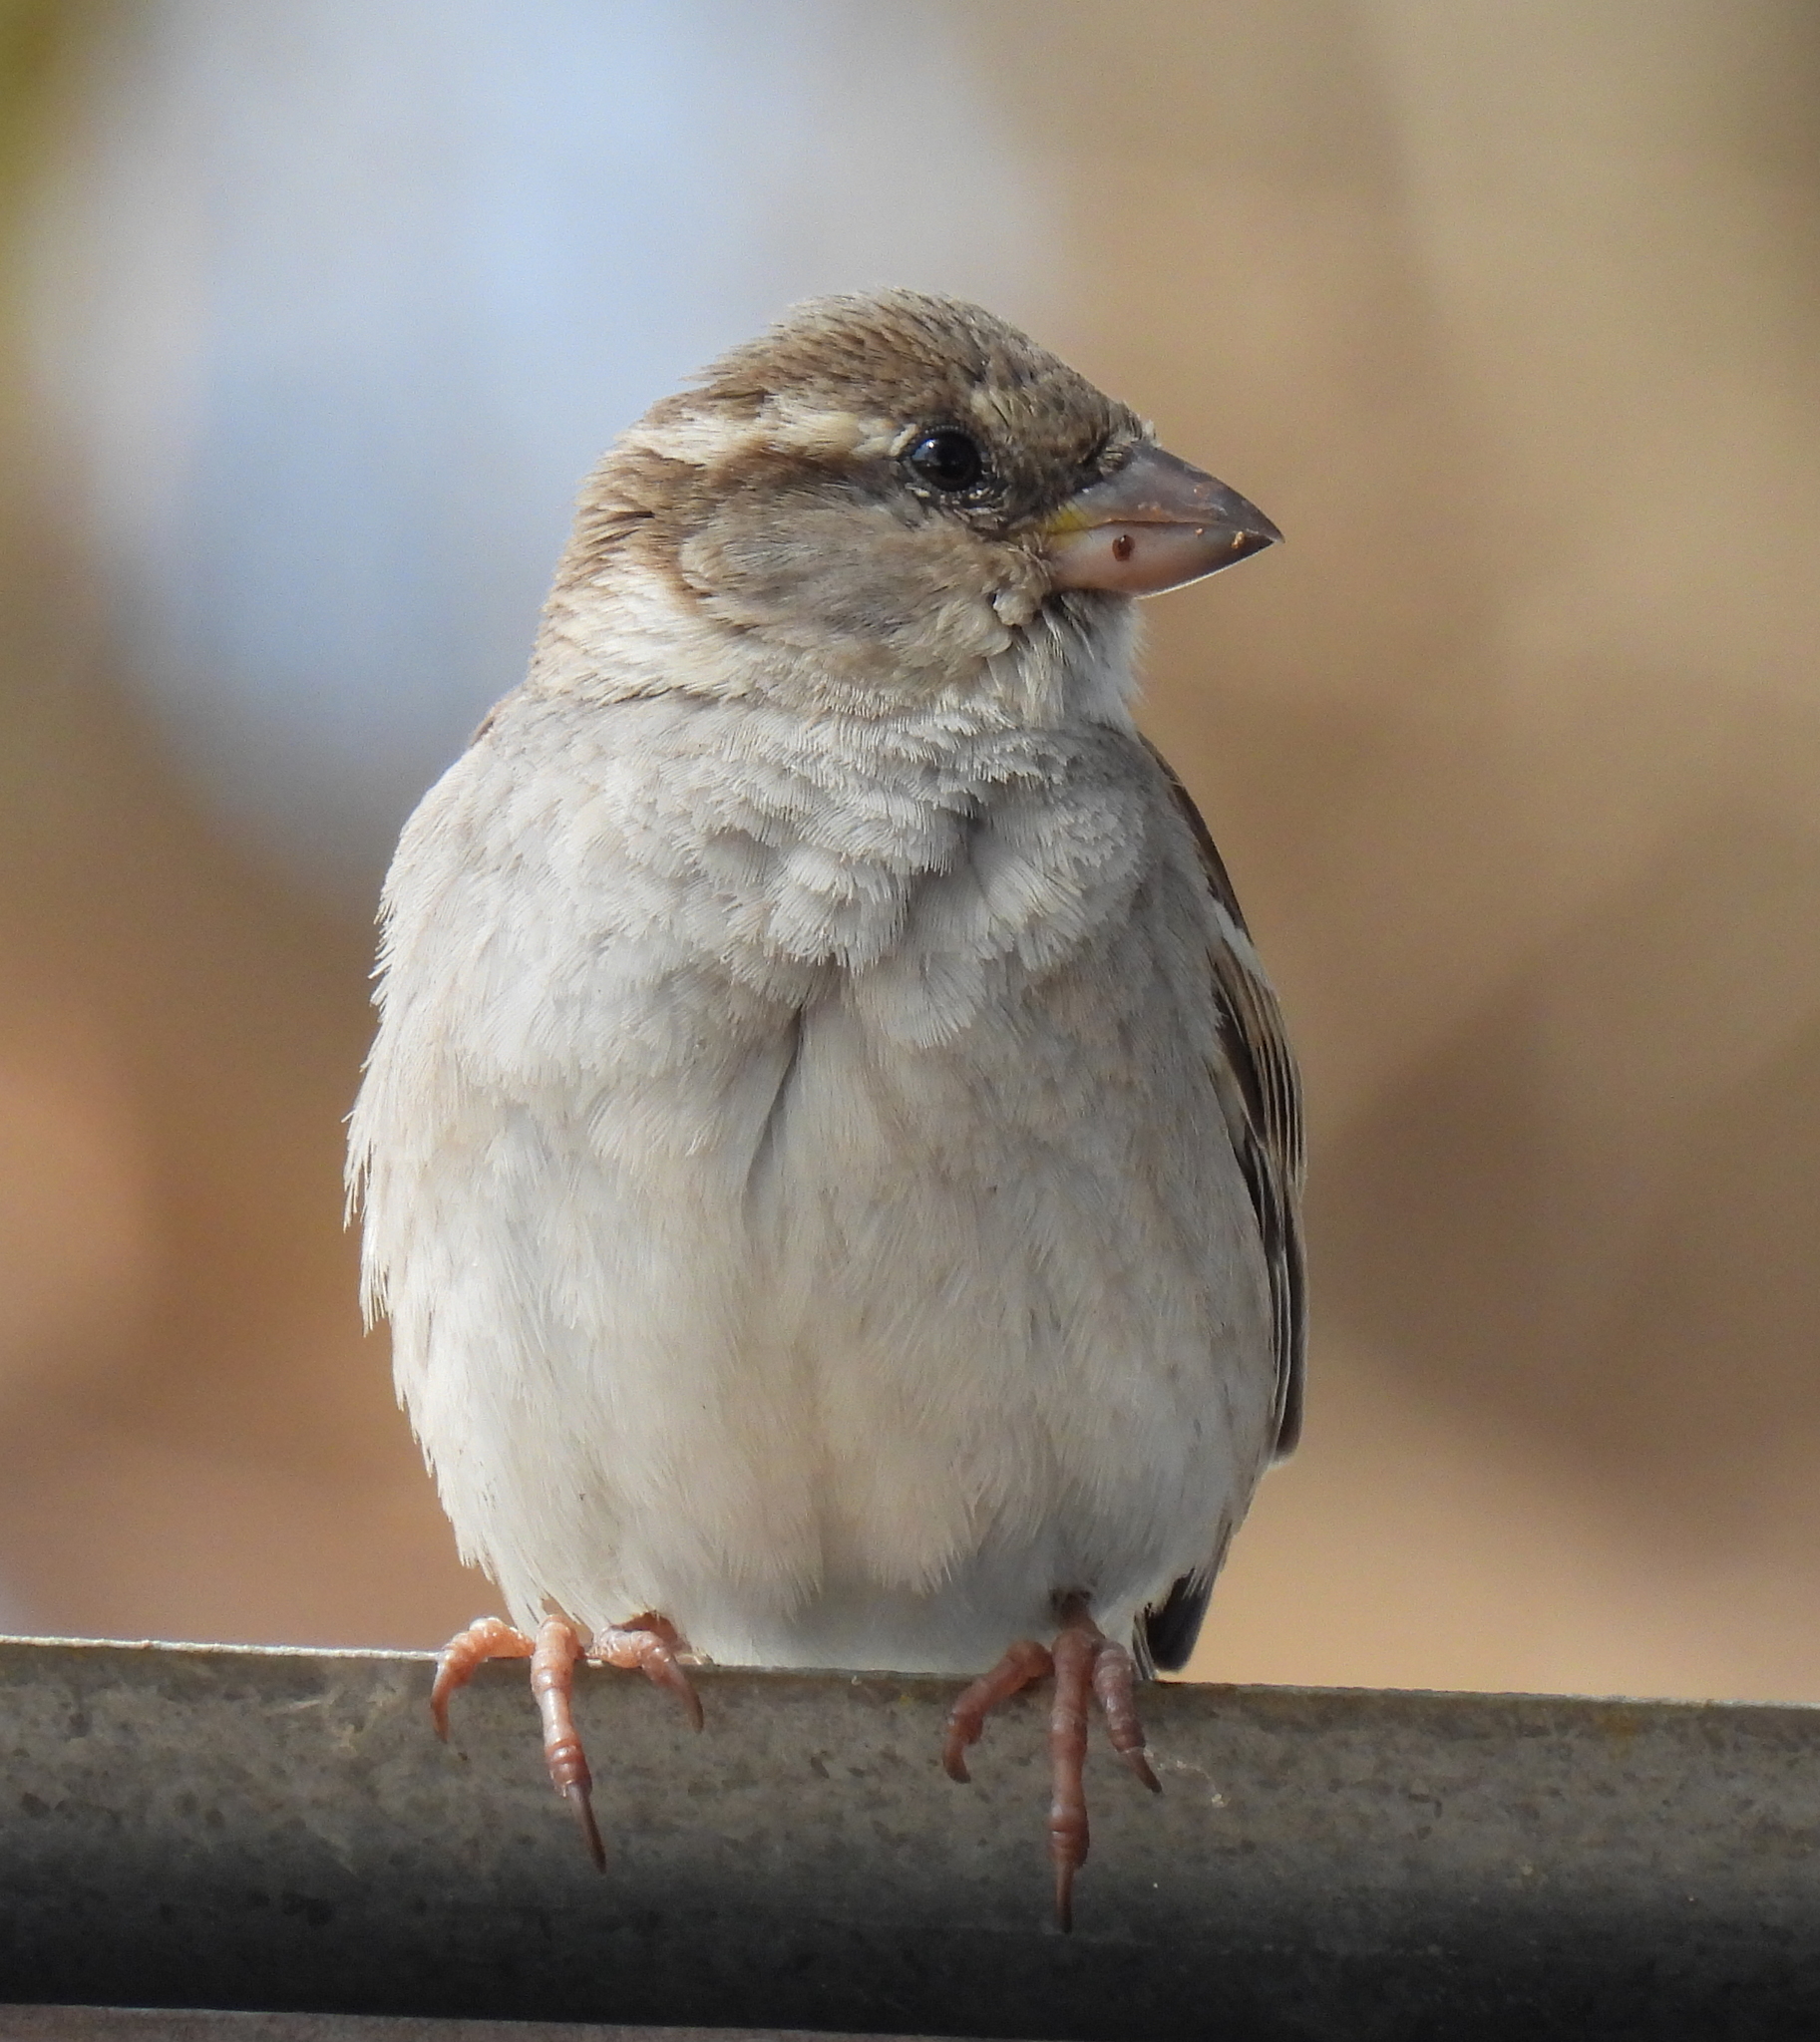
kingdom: Animalia
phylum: Chordata
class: Aves
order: Passeriformes
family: Passeridae
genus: Passer
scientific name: Passer domesticus
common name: House sparrow
